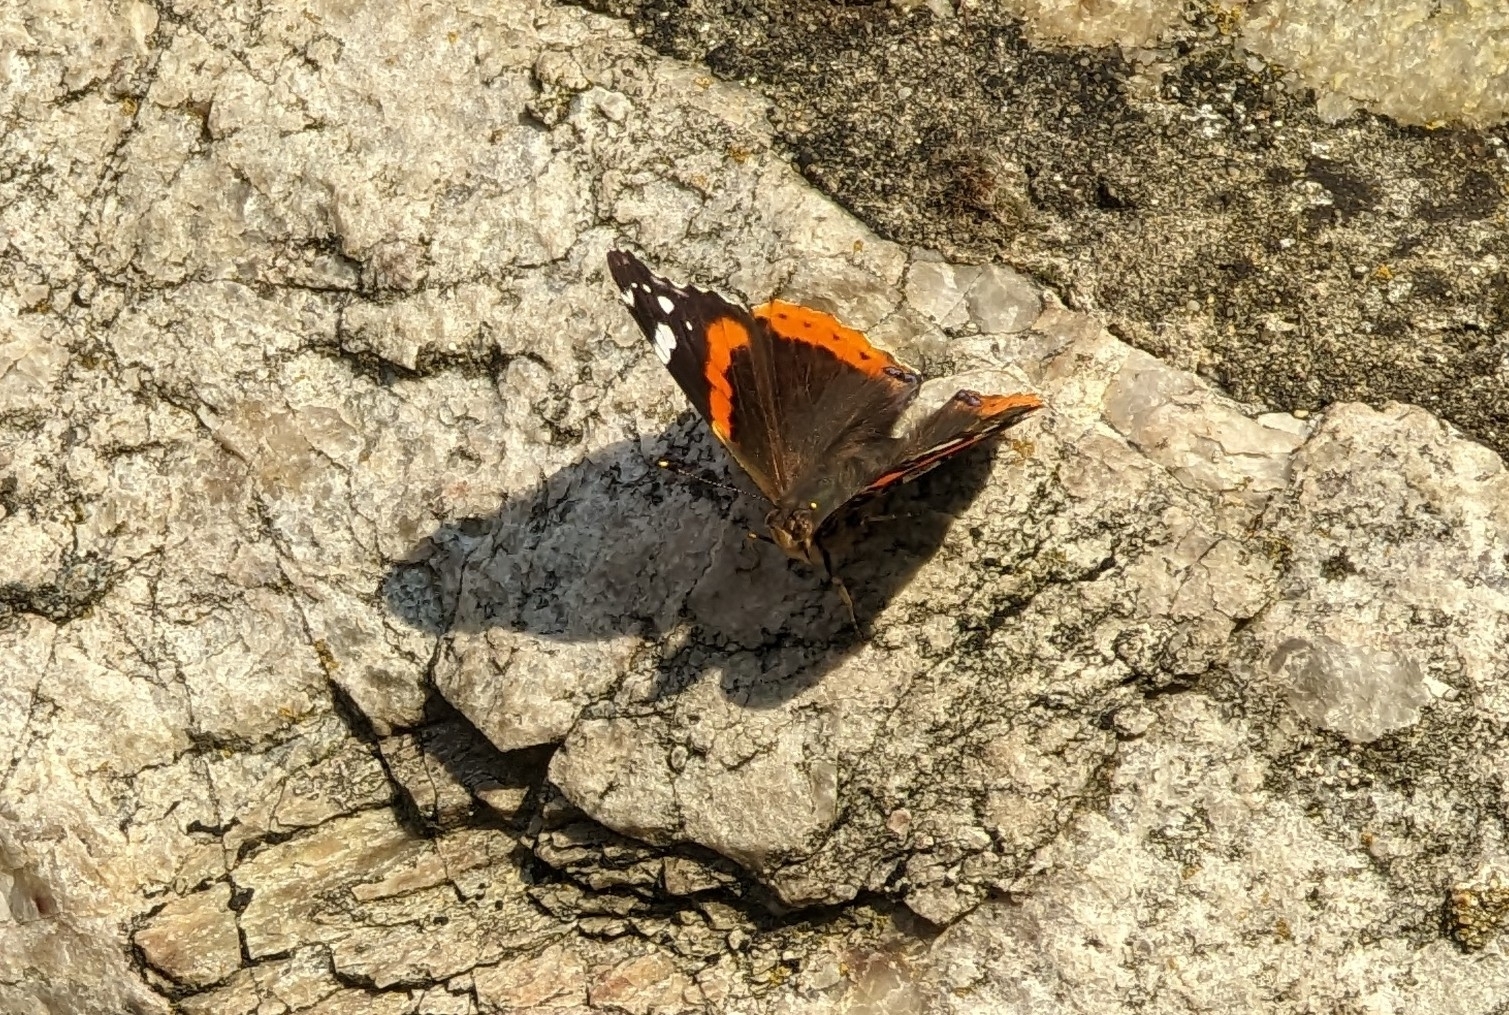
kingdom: Animalia
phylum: Arthropoda
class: Insecta
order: Lepidoptera
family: Nymphalidae
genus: Vanessa
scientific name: Vanessa atalanta
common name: Red admiral
